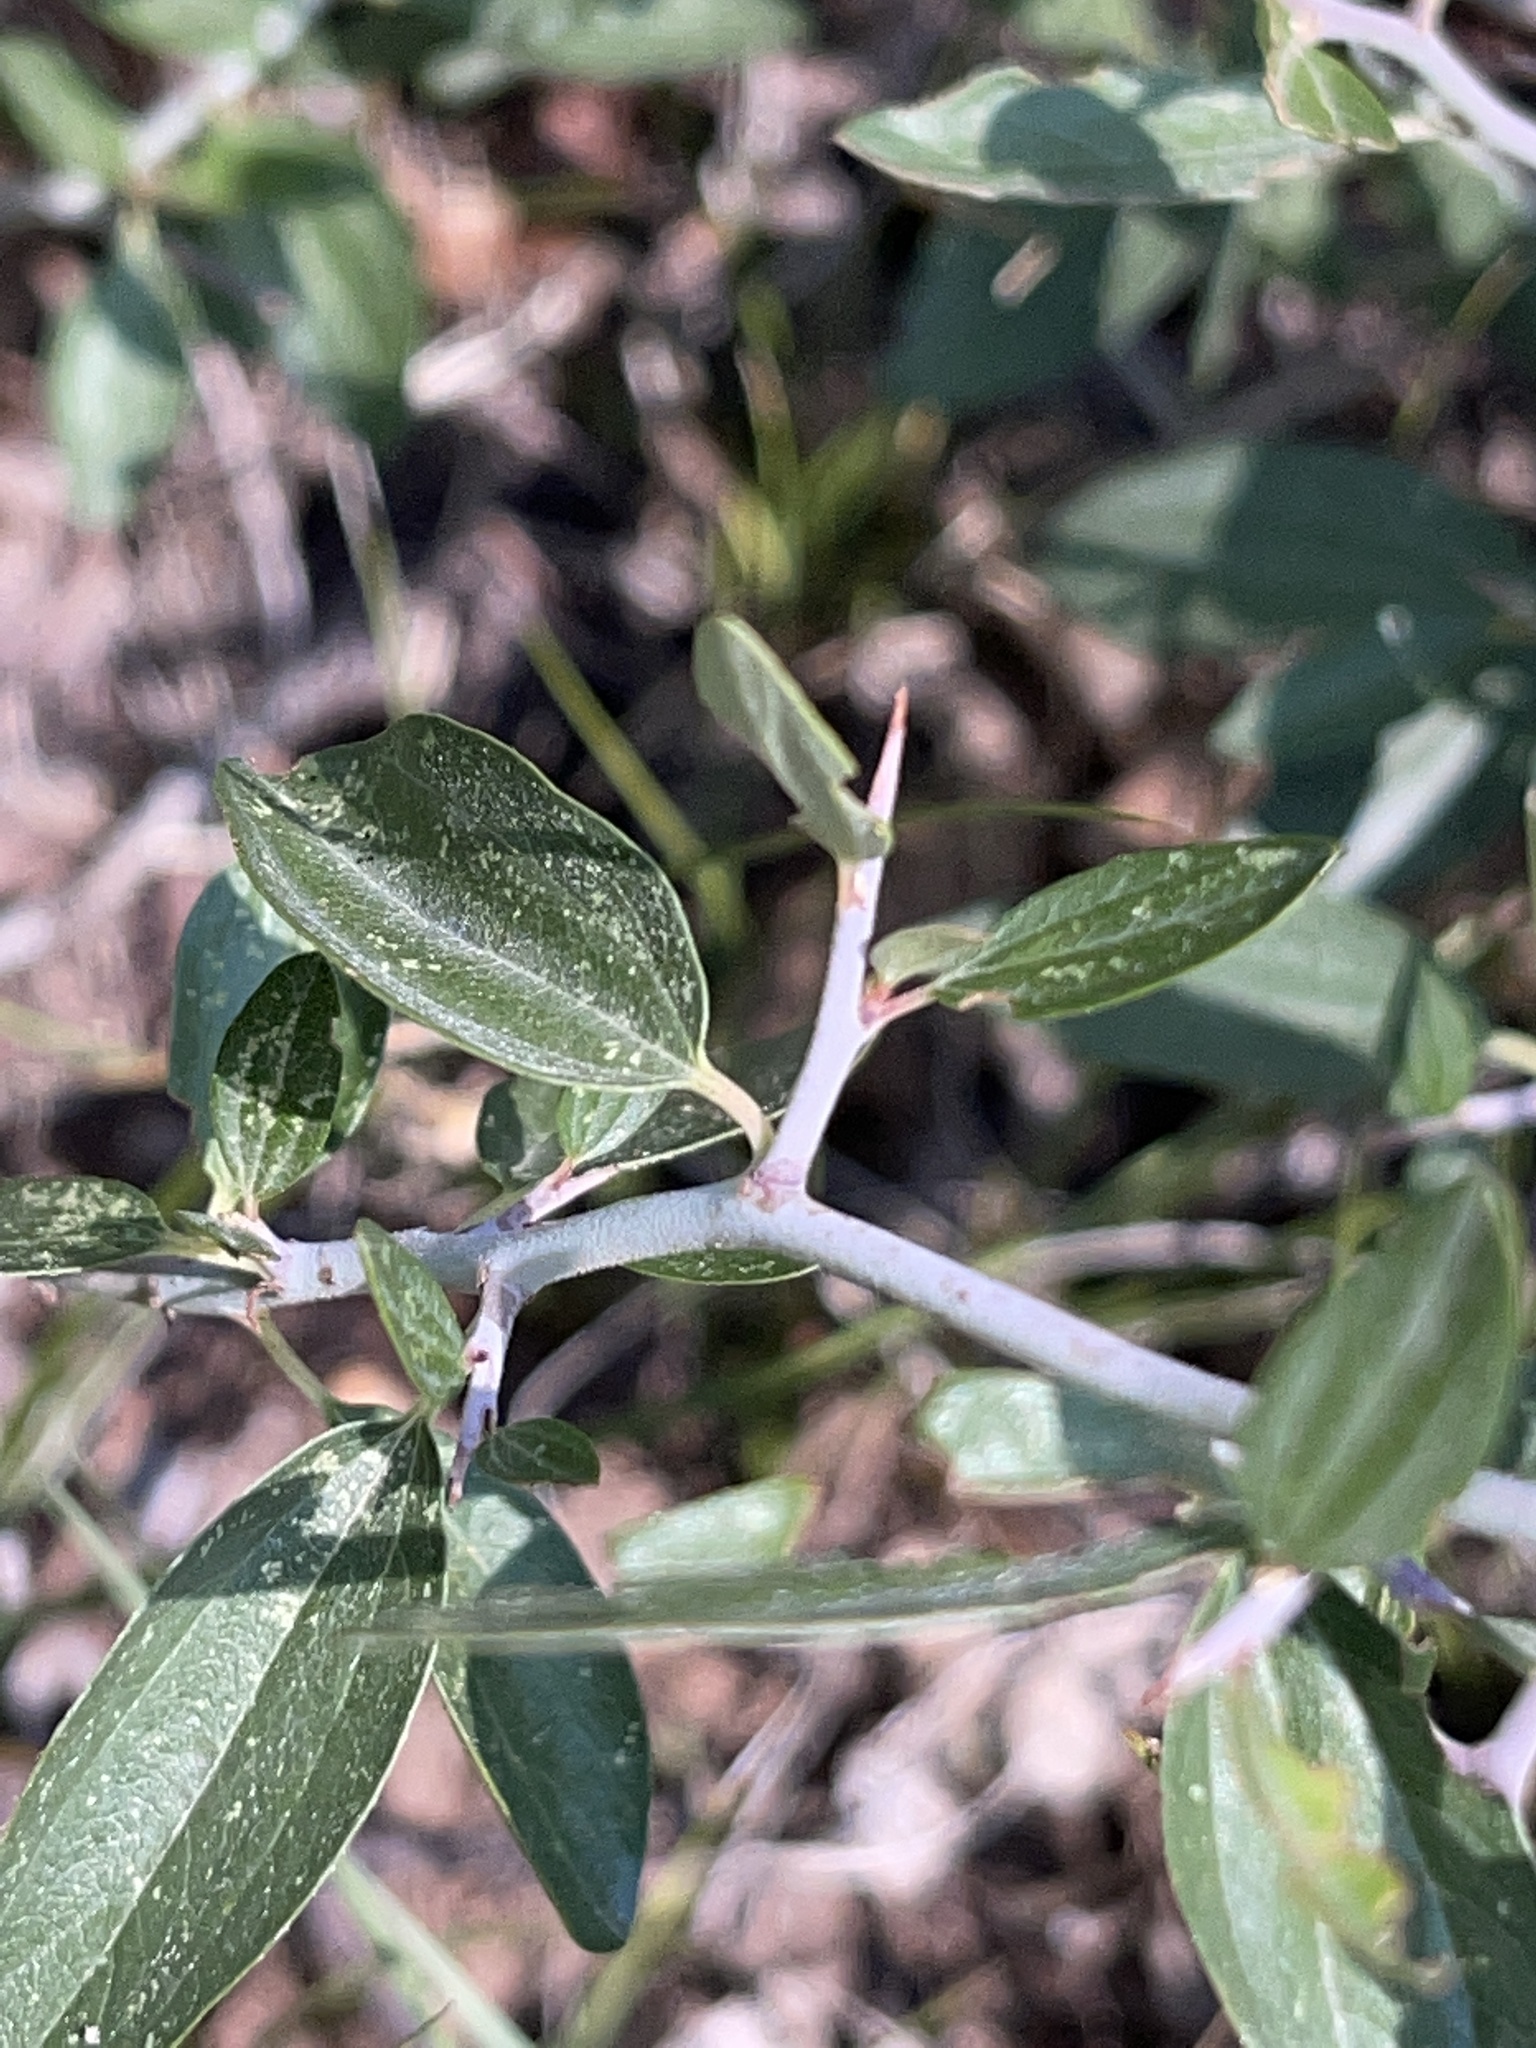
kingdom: Plantae
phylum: Tracheophyta
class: Magnoliopsida
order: Rosales
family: Rhamnaceae
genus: Ceanothus
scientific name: Ceanothus fendleri
